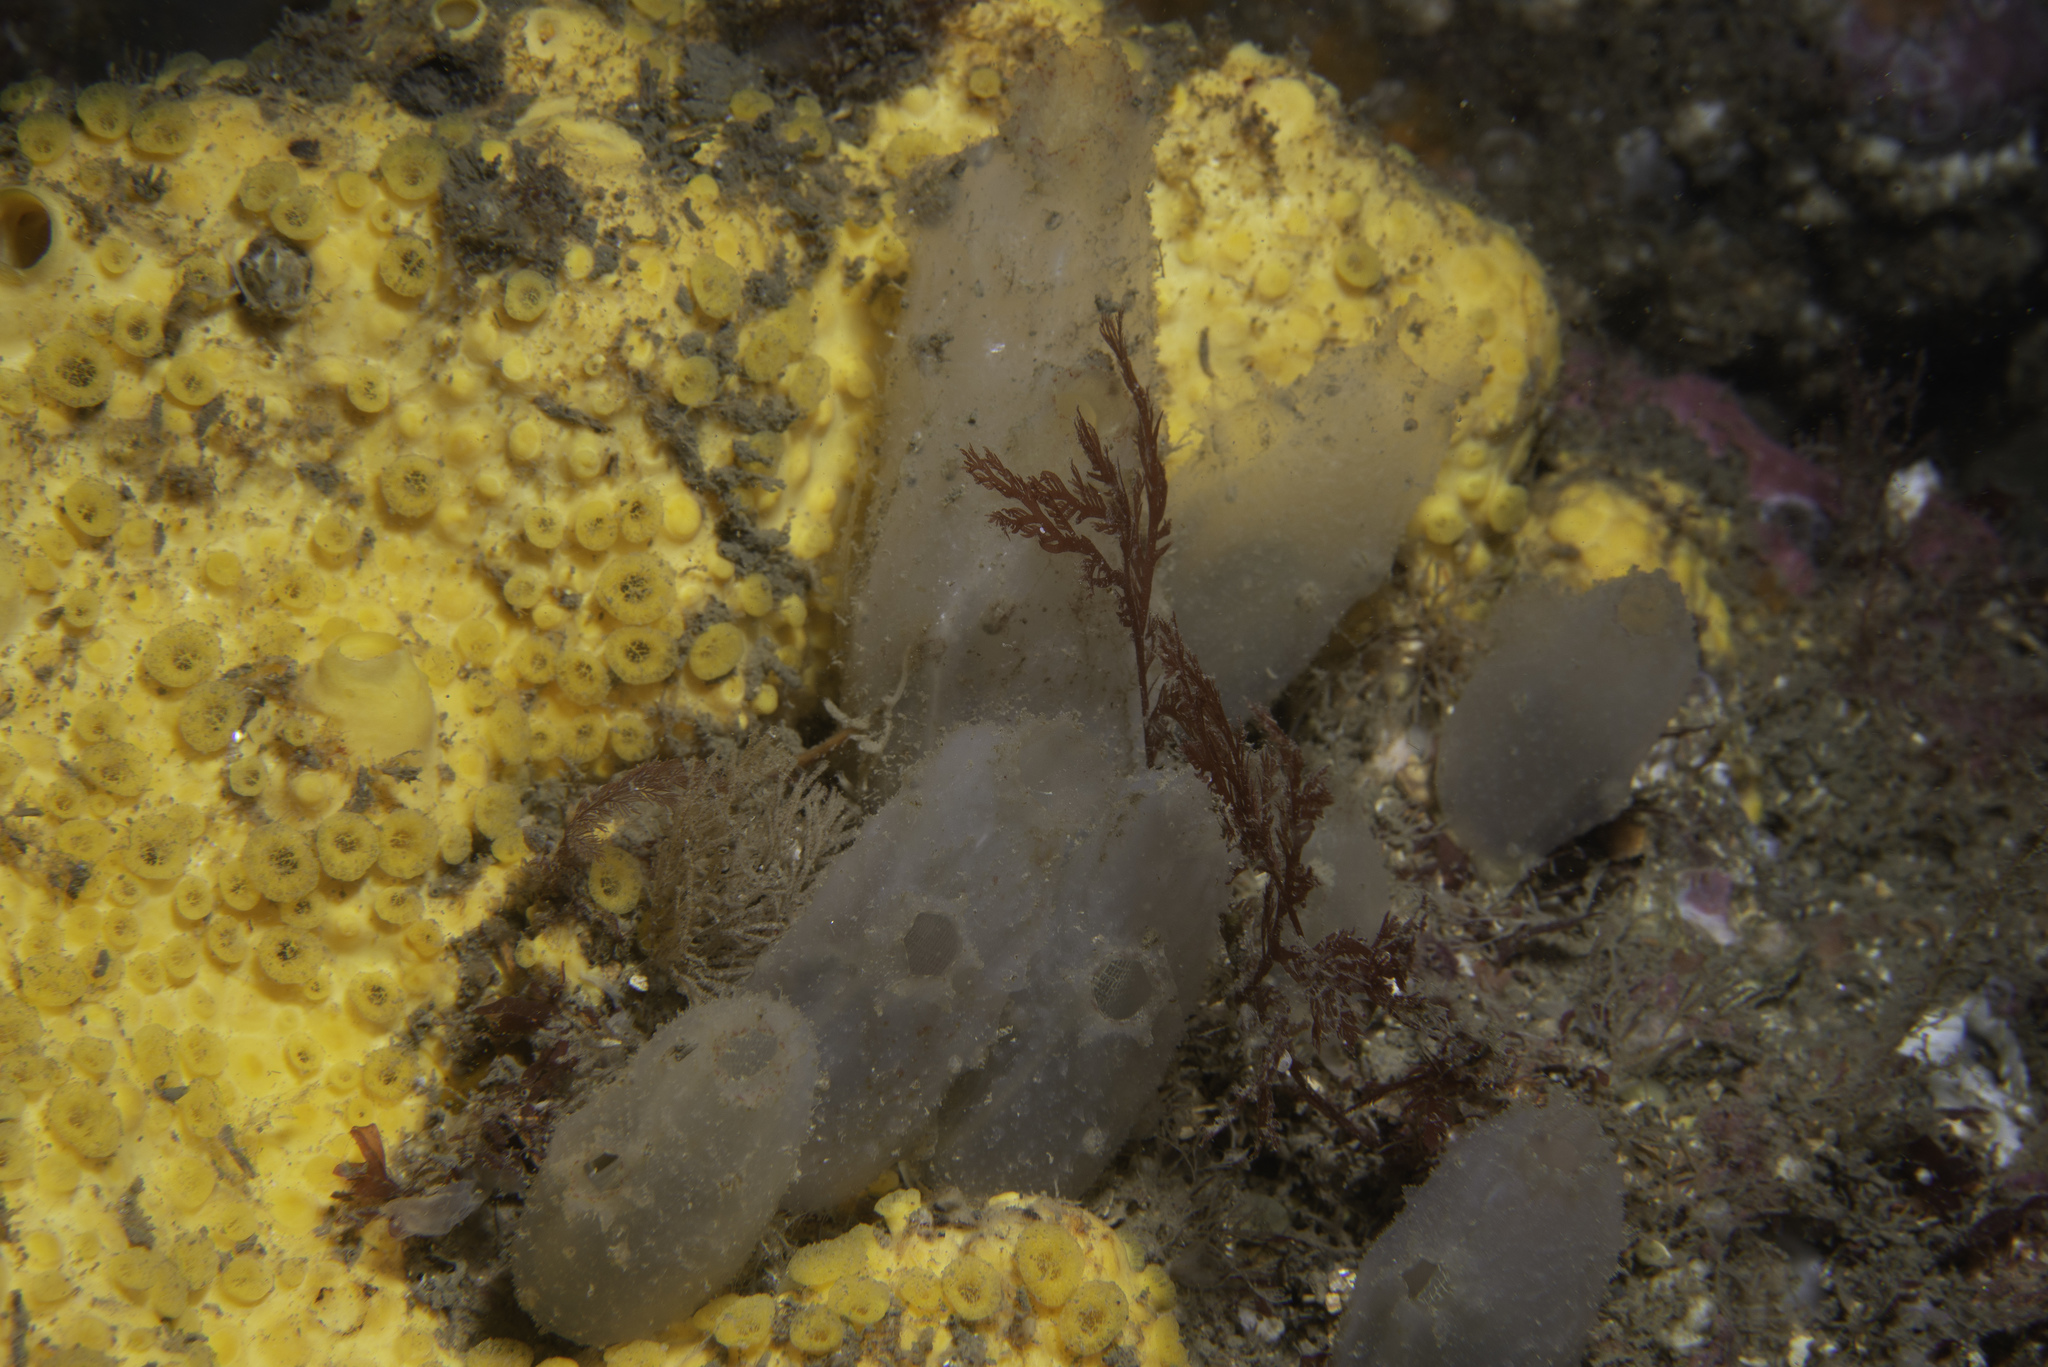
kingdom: Animalia
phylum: Chordata
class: Ascidiacea
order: Phlebobranchia
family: Ascidiidae
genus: Ascidiella
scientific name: Ascidiella aspersa
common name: Dirty sea-squirt
